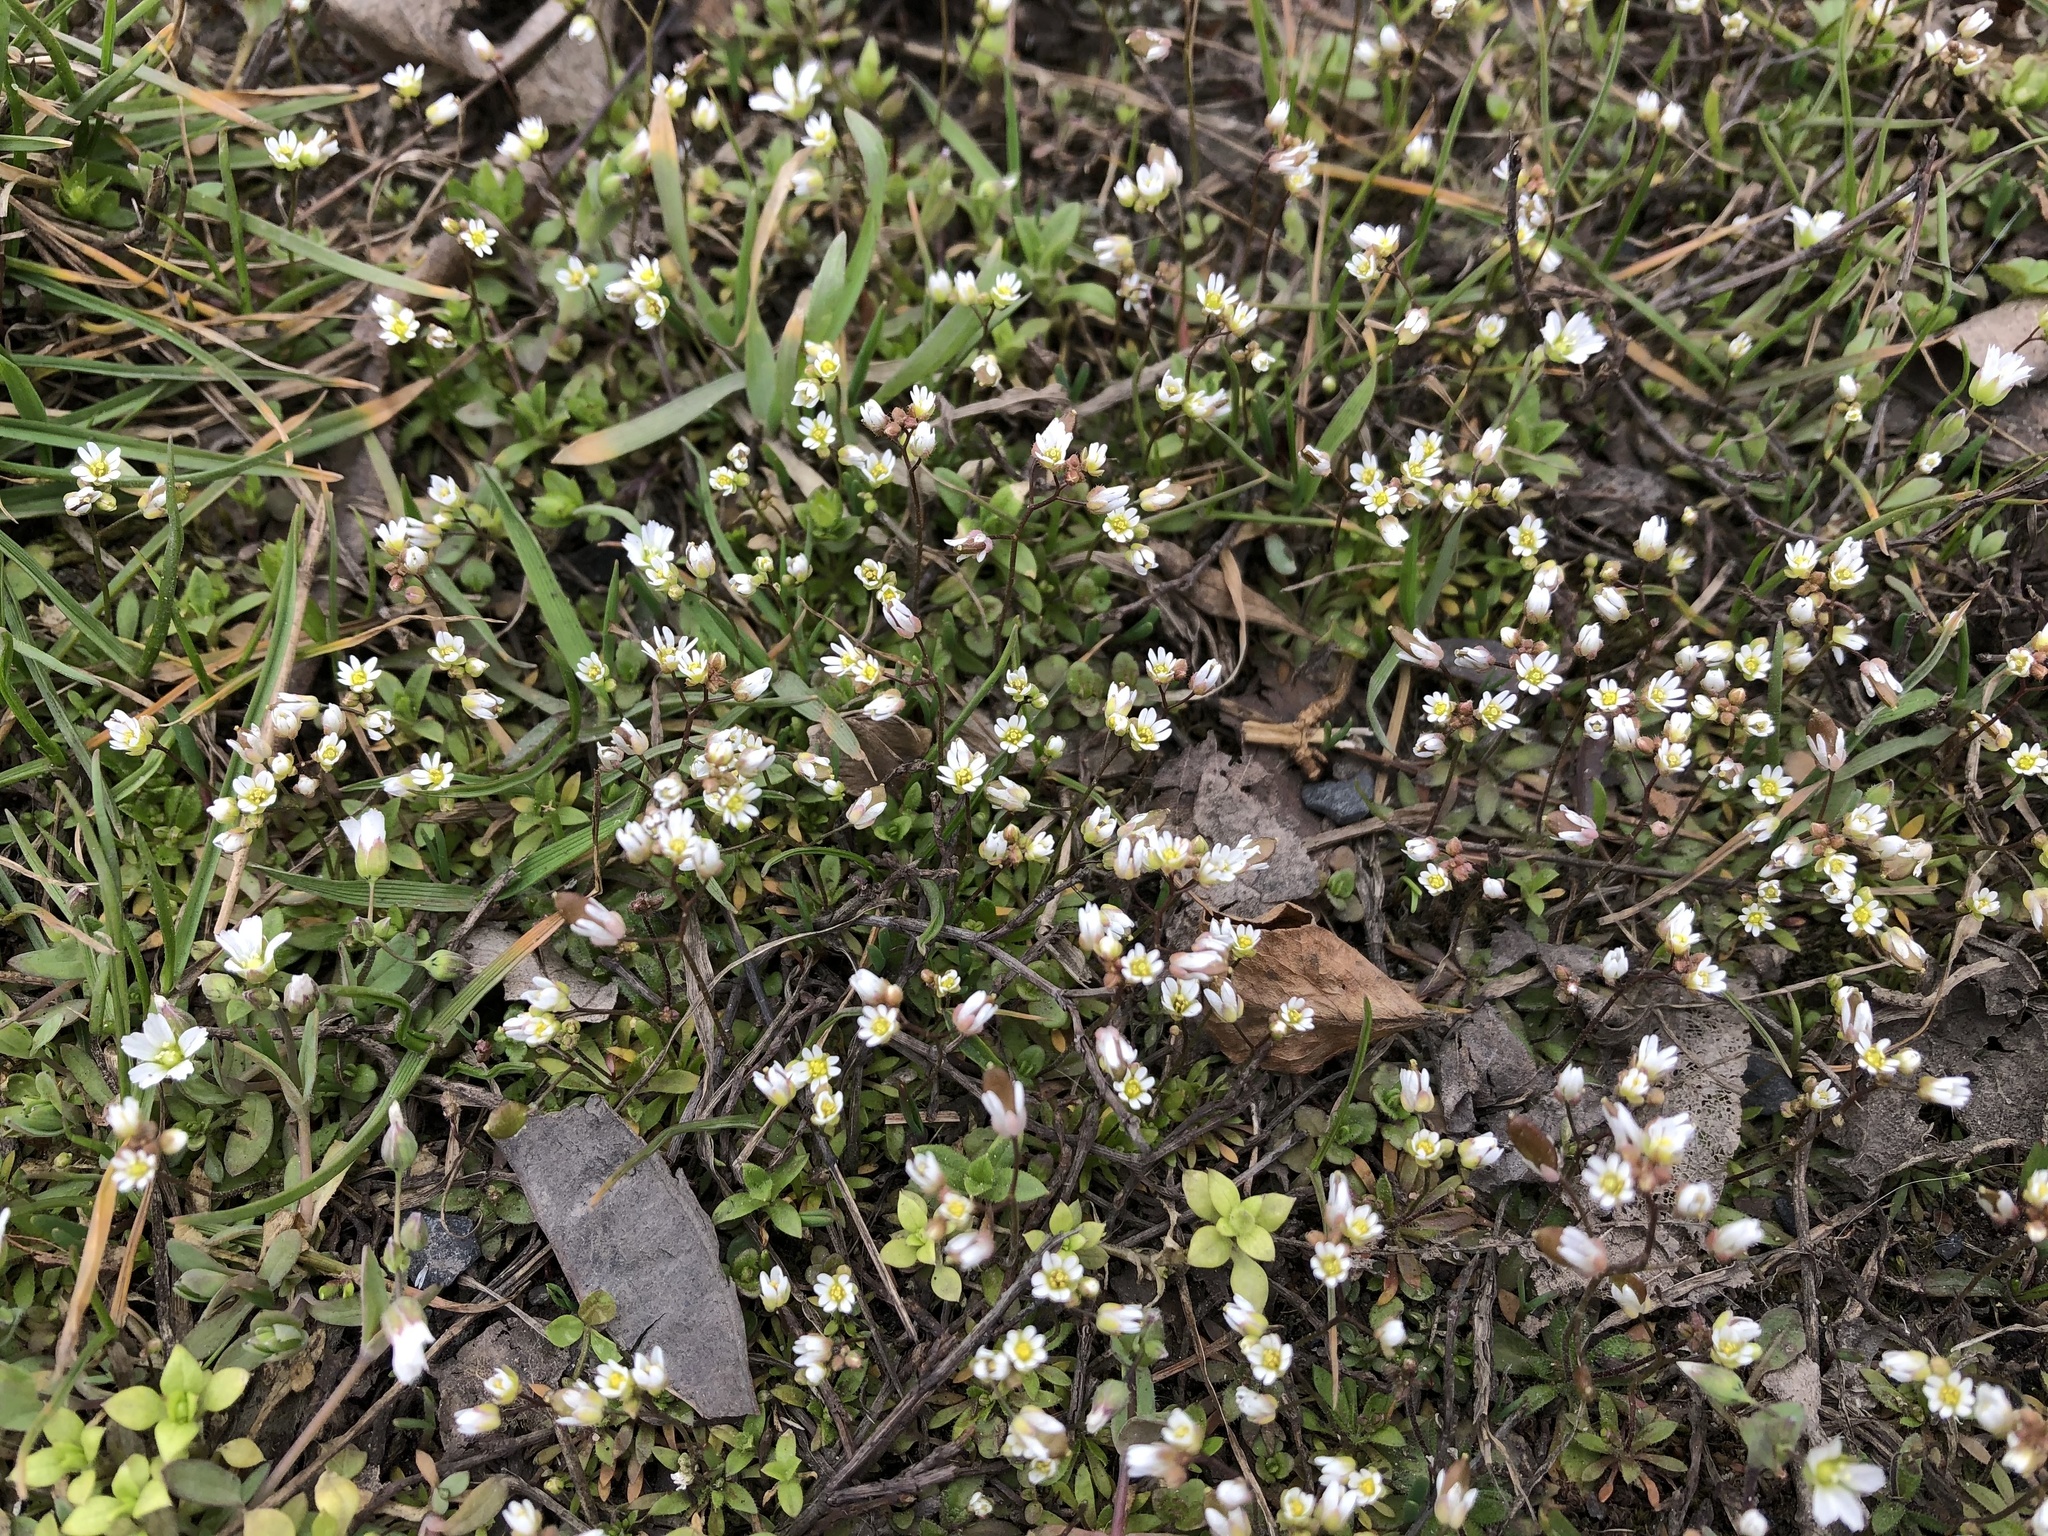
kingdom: Plantae
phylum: Tracheophyta
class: Magnoliopsida
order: Brassicales
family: Brassicaceae
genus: Draba
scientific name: Draba verna
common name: Spring draba
